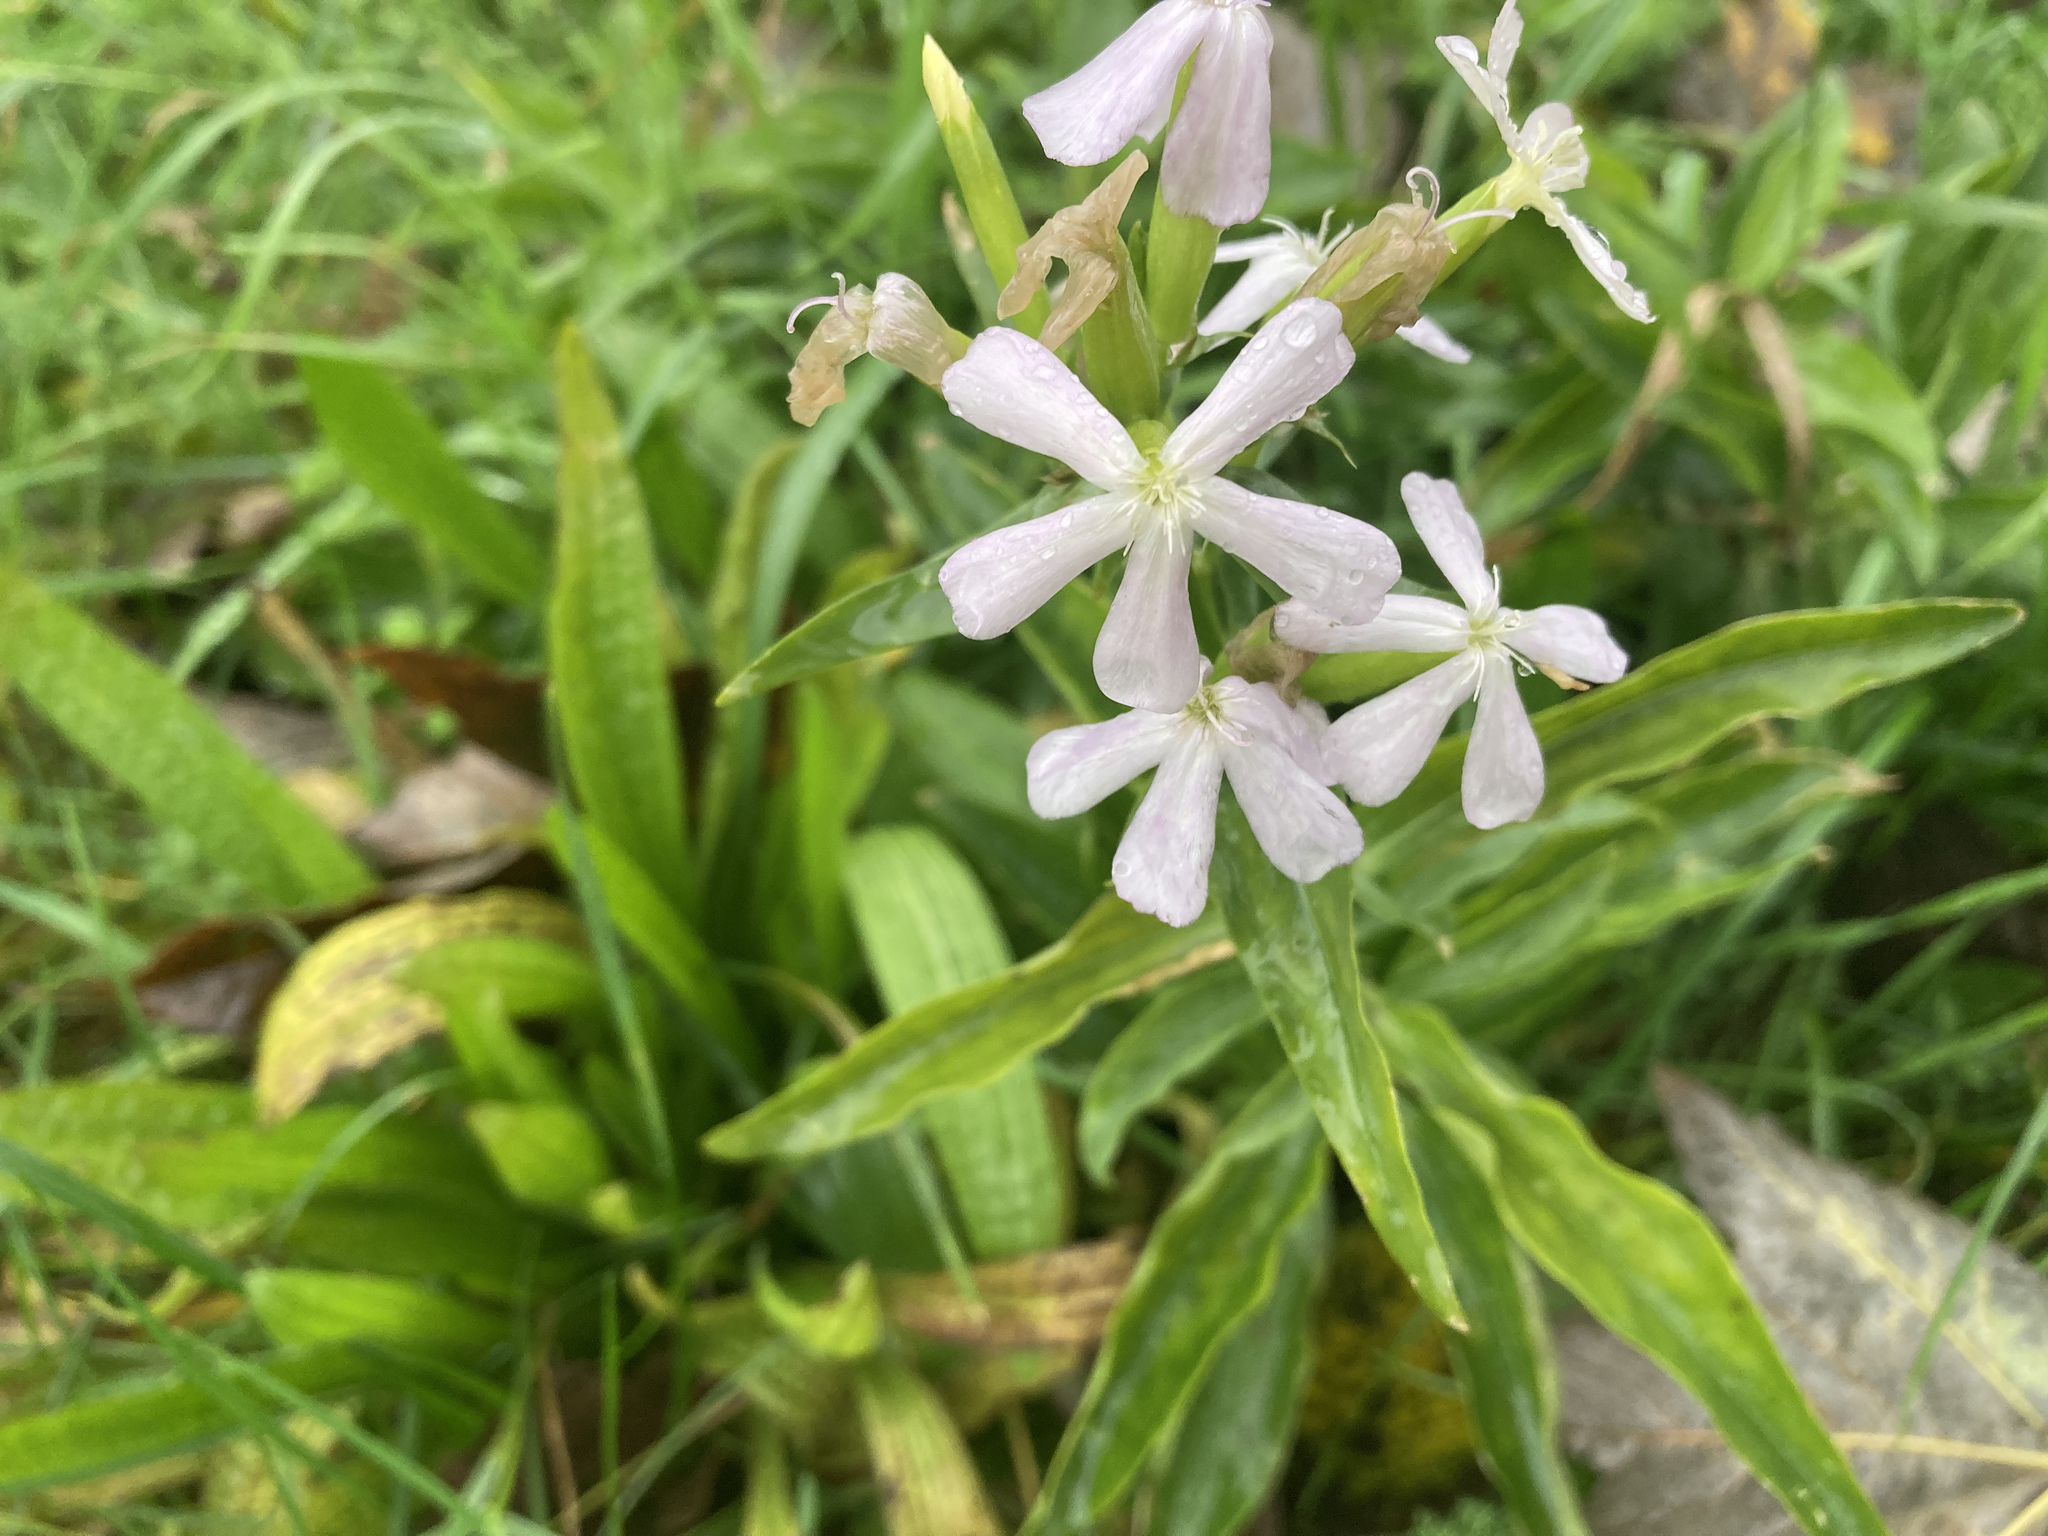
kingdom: Plantae
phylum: Tracheophyta
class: Magnoliopsida
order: Caryophyllales
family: Caryophyllaceae
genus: Saponaria
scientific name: Saponaria officinalis
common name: Soapwort
